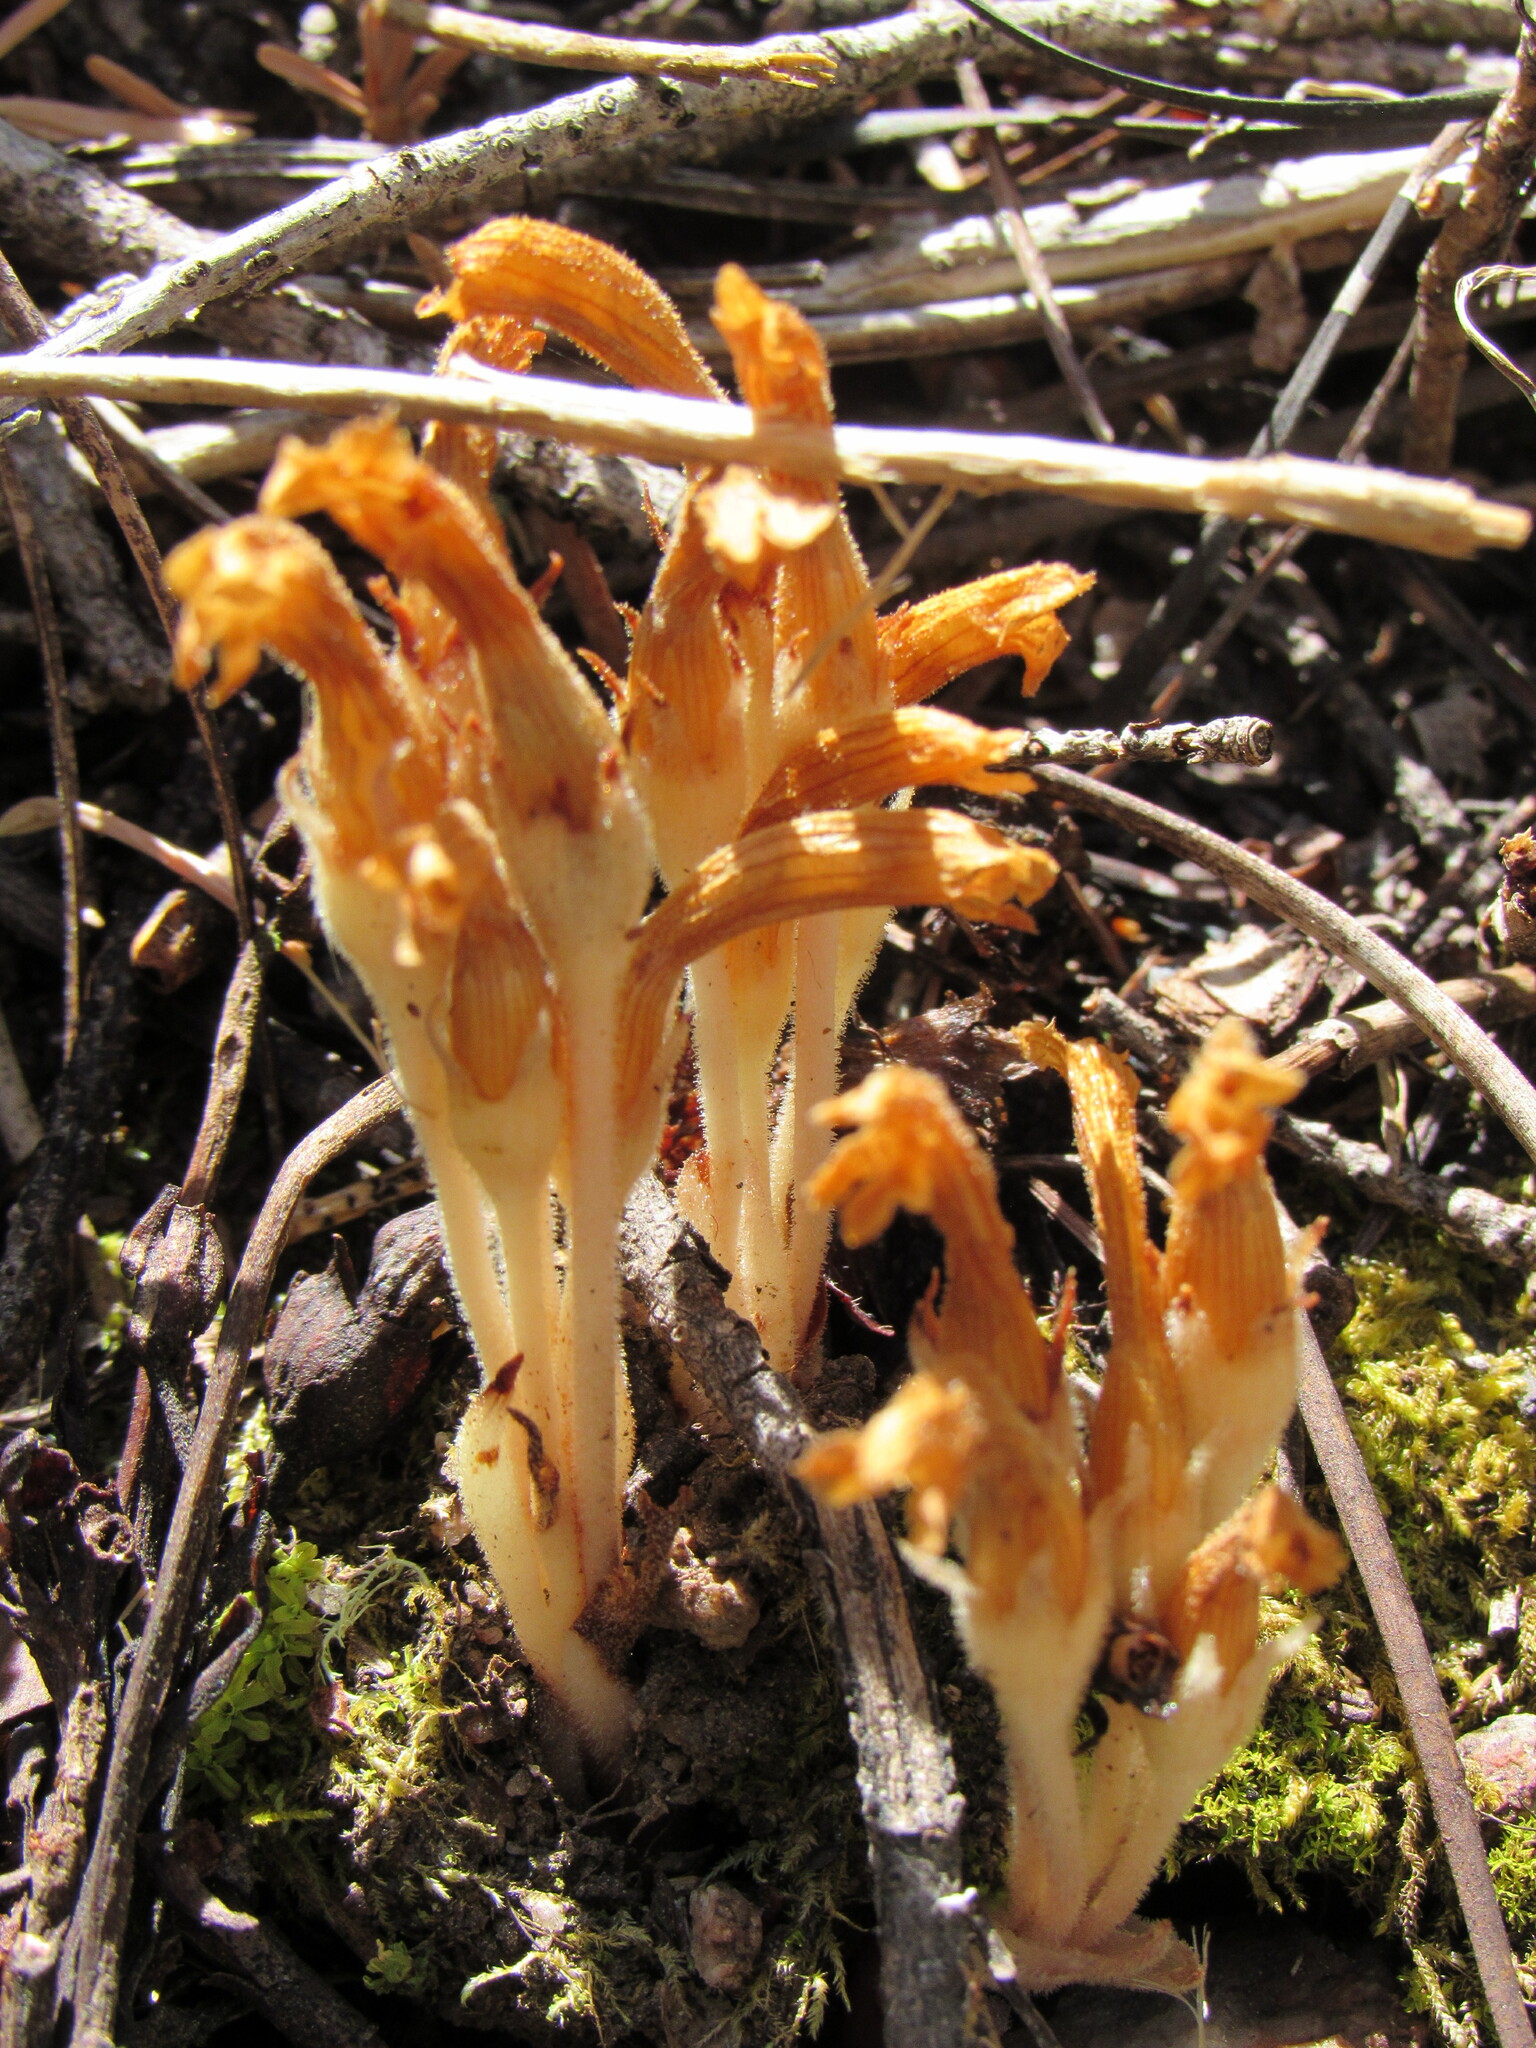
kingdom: Plantae
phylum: Tracheophyta
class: Magnoliopsida
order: Lamiales
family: Orobanchaceae
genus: Aphyllon
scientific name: Aphyllon fasciculatum
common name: Clustered broomrape
